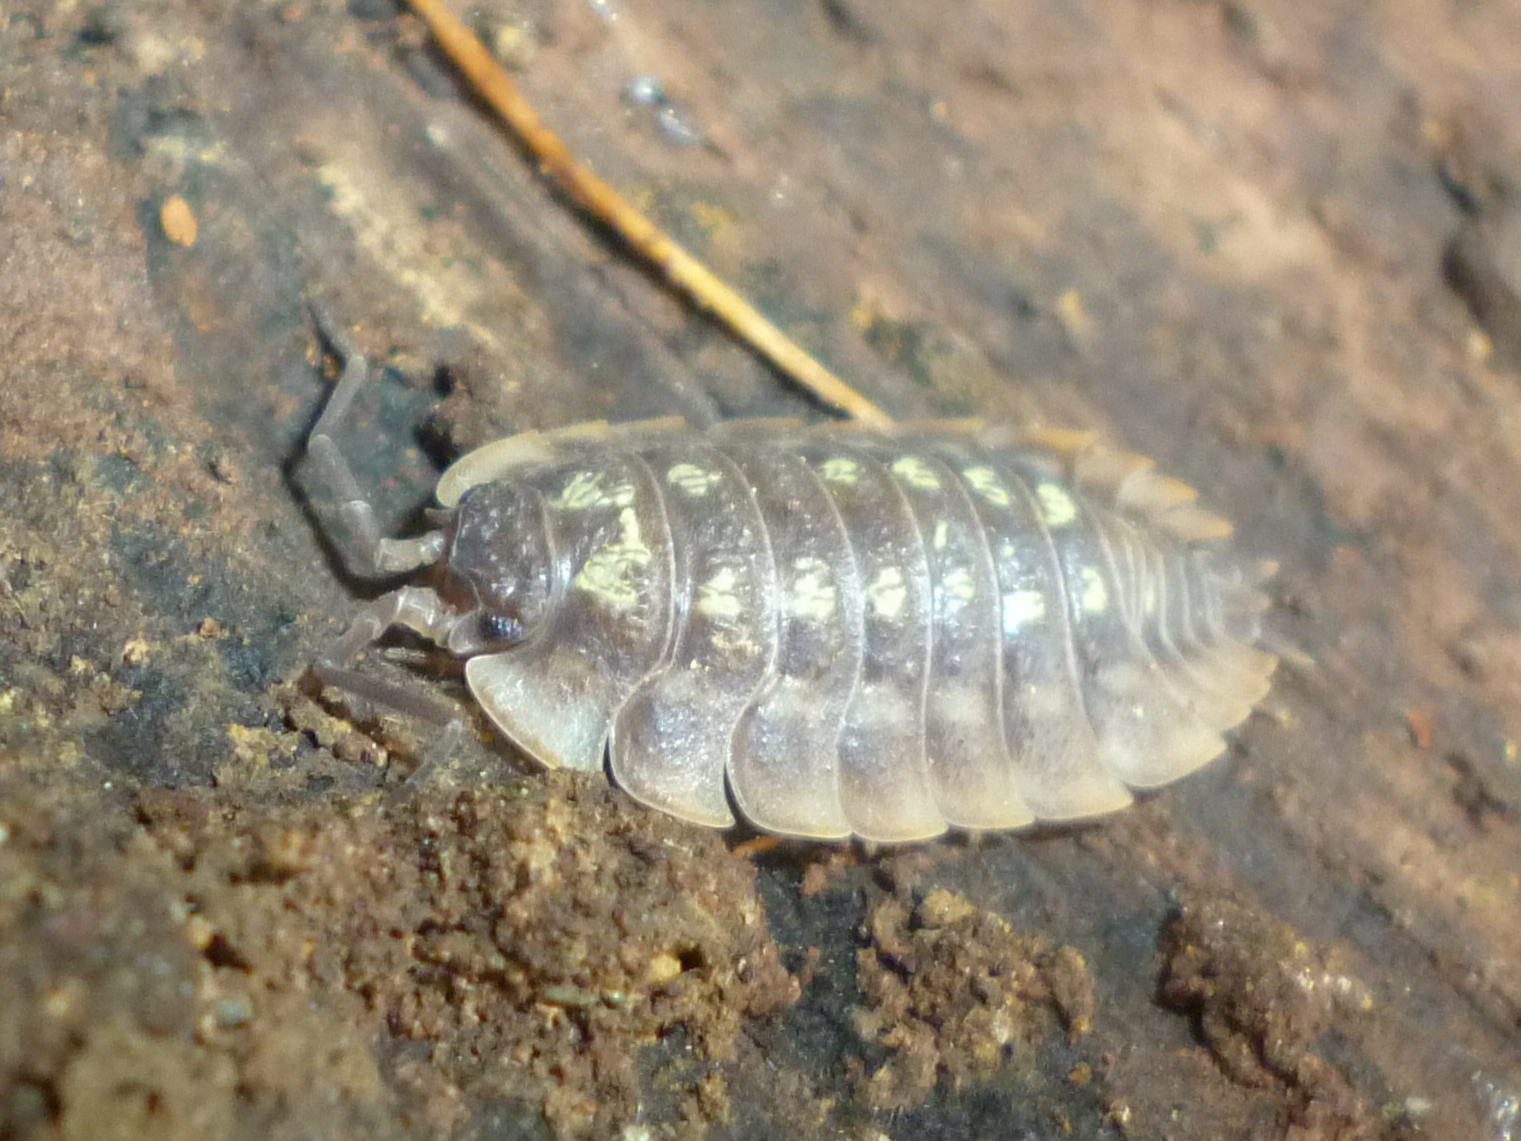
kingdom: Animalia
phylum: Arthropoda
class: Malacostraca
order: Isopoda
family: Oniscidae
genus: Oniscus
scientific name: Oniscus asellus
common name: Common shiny woodlouse
